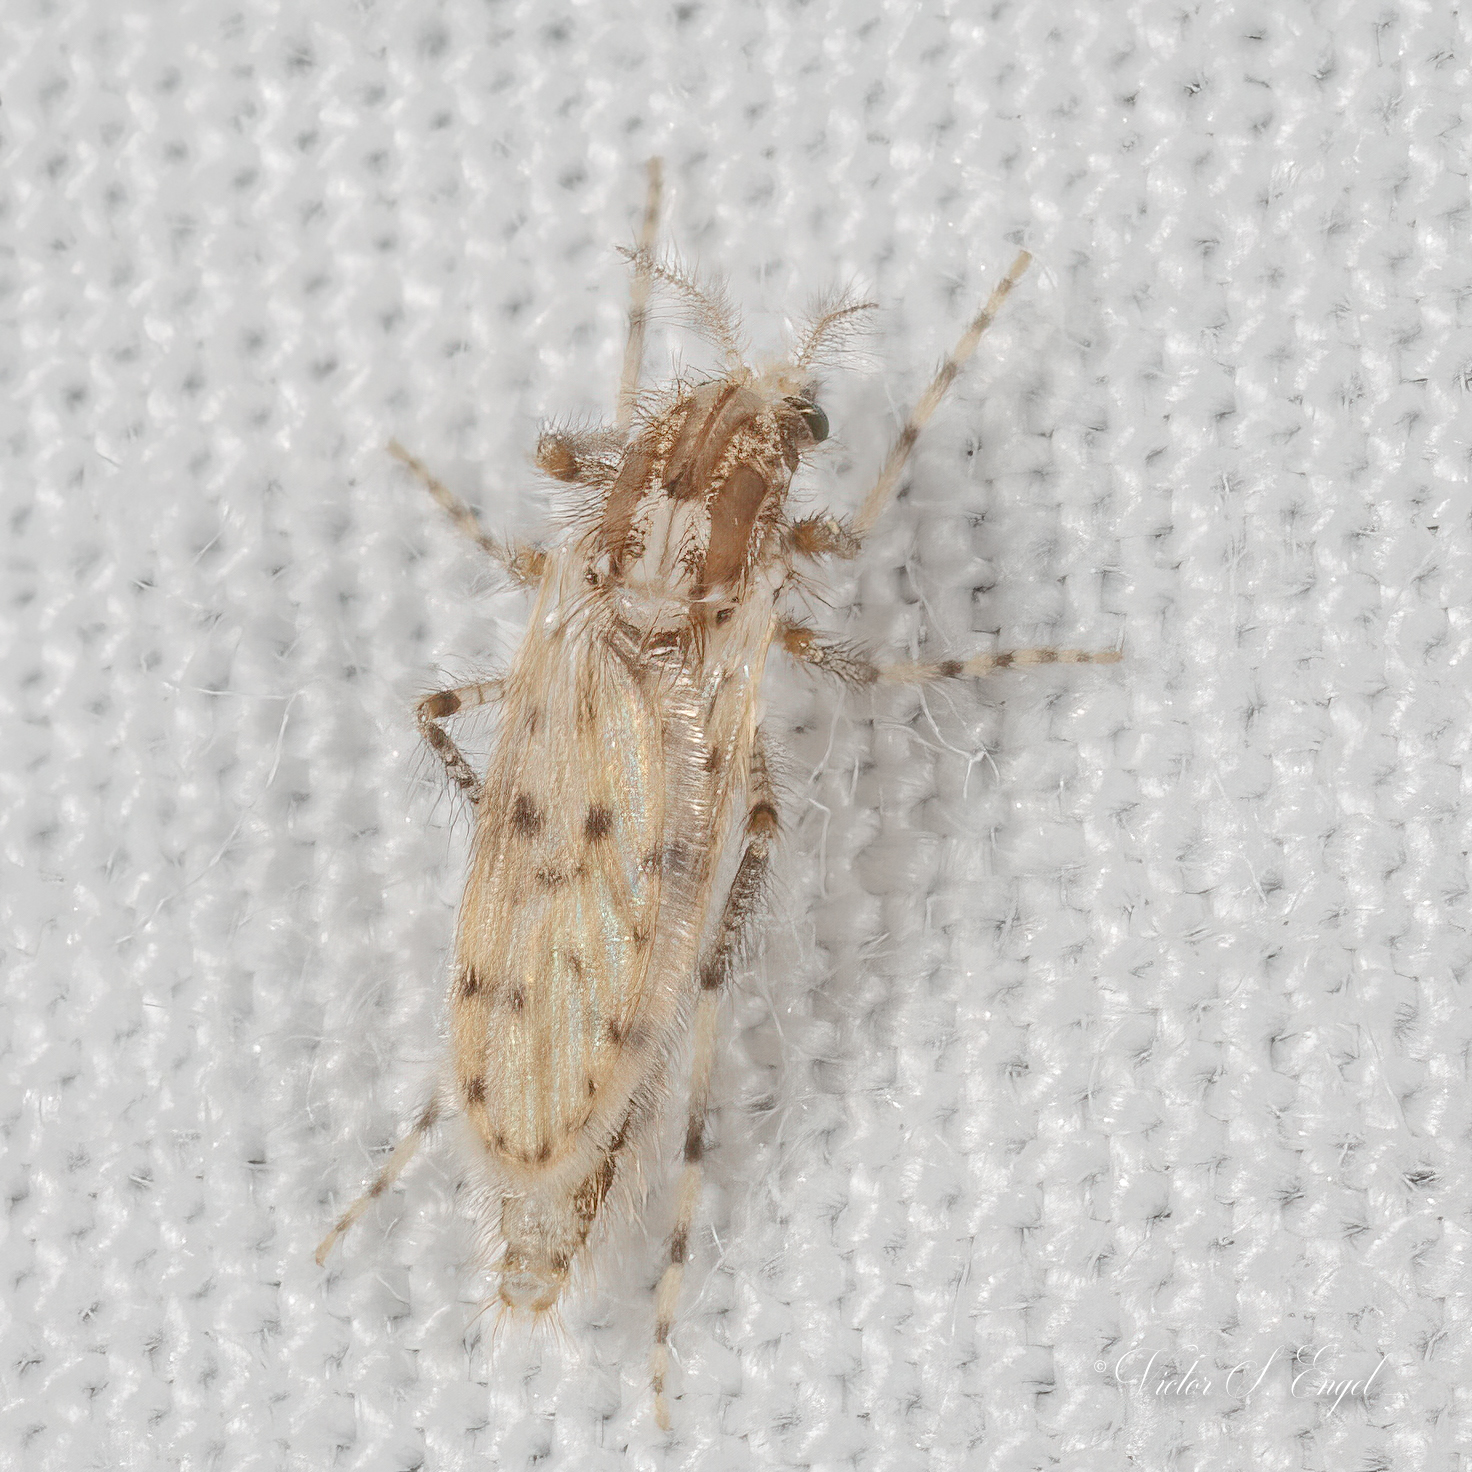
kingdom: Animalia
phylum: Arthropoda
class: Insecta
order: Diptera
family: Chaoboridae
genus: Chaoborus
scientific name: Chaoborus punctipennis
